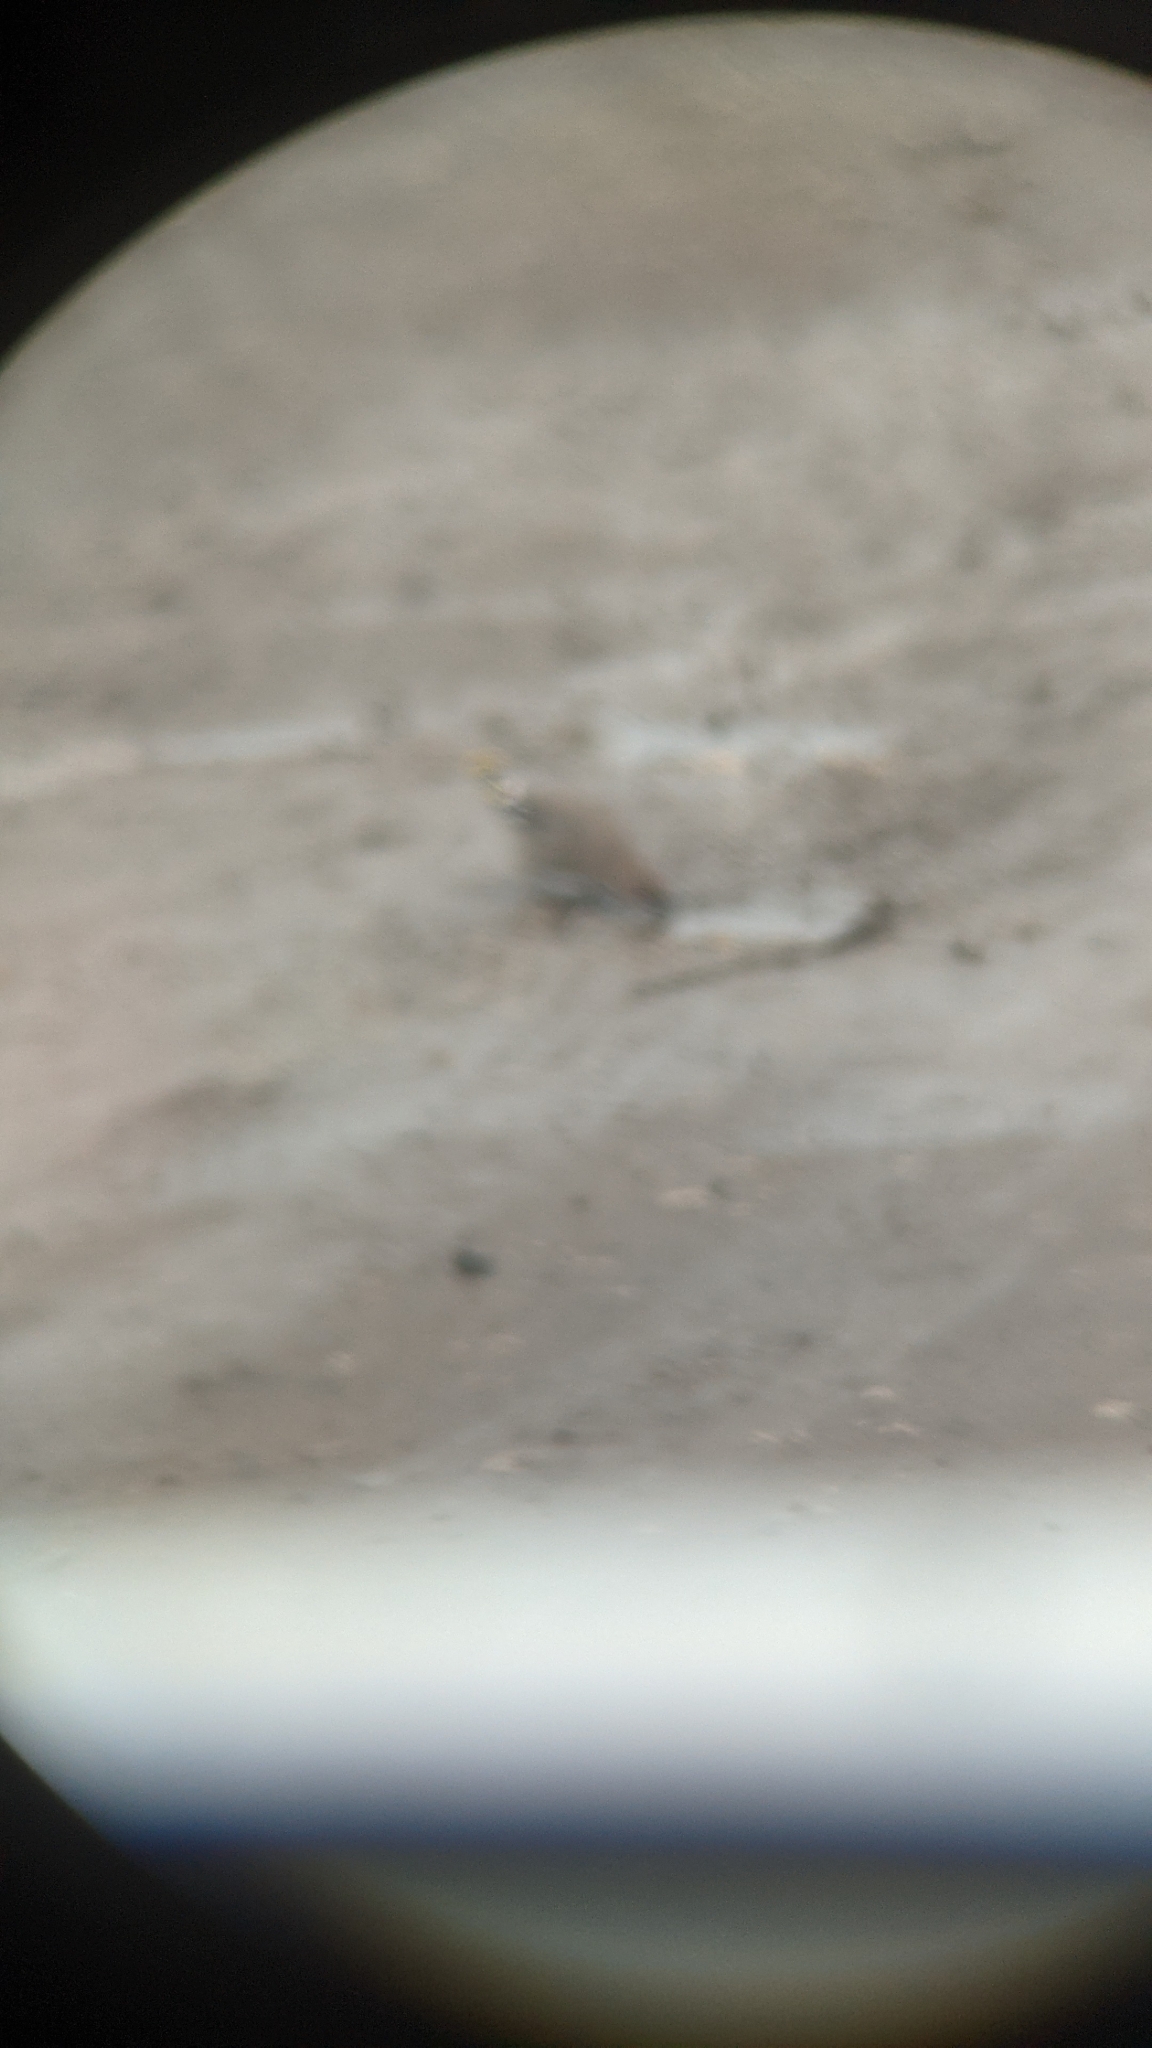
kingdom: Animalia
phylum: Chordata
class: Aves
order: Passeriformes
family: Bombycillidae
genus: Bombycilla
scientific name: Bombycilla garrulus
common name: Bohemian waxwing
